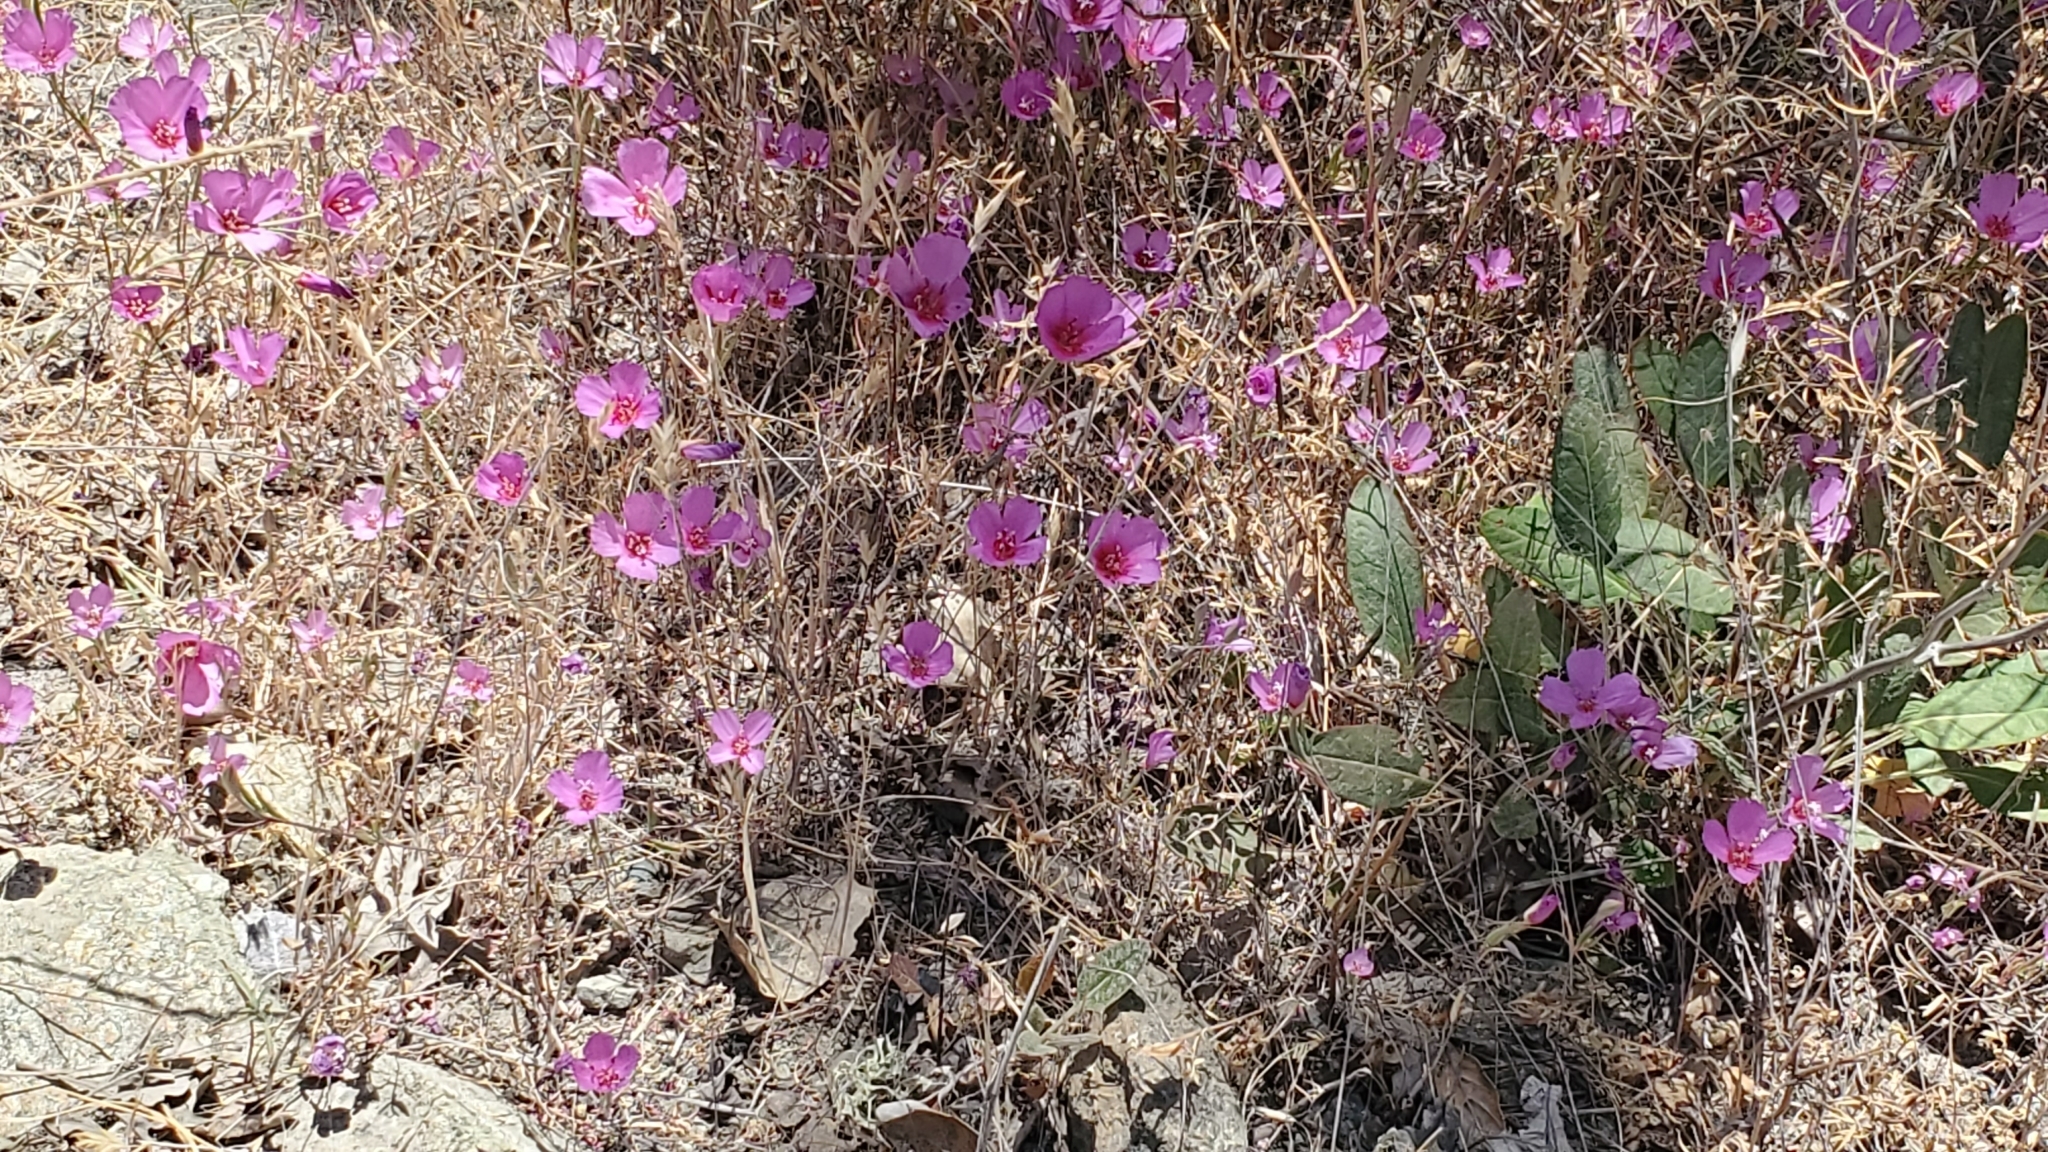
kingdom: Plantae
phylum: Tracheophyta
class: Magnoliopsida
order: Myrtales
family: Onagraceae
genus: Clarkia
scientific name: Clarkia rubicunda
